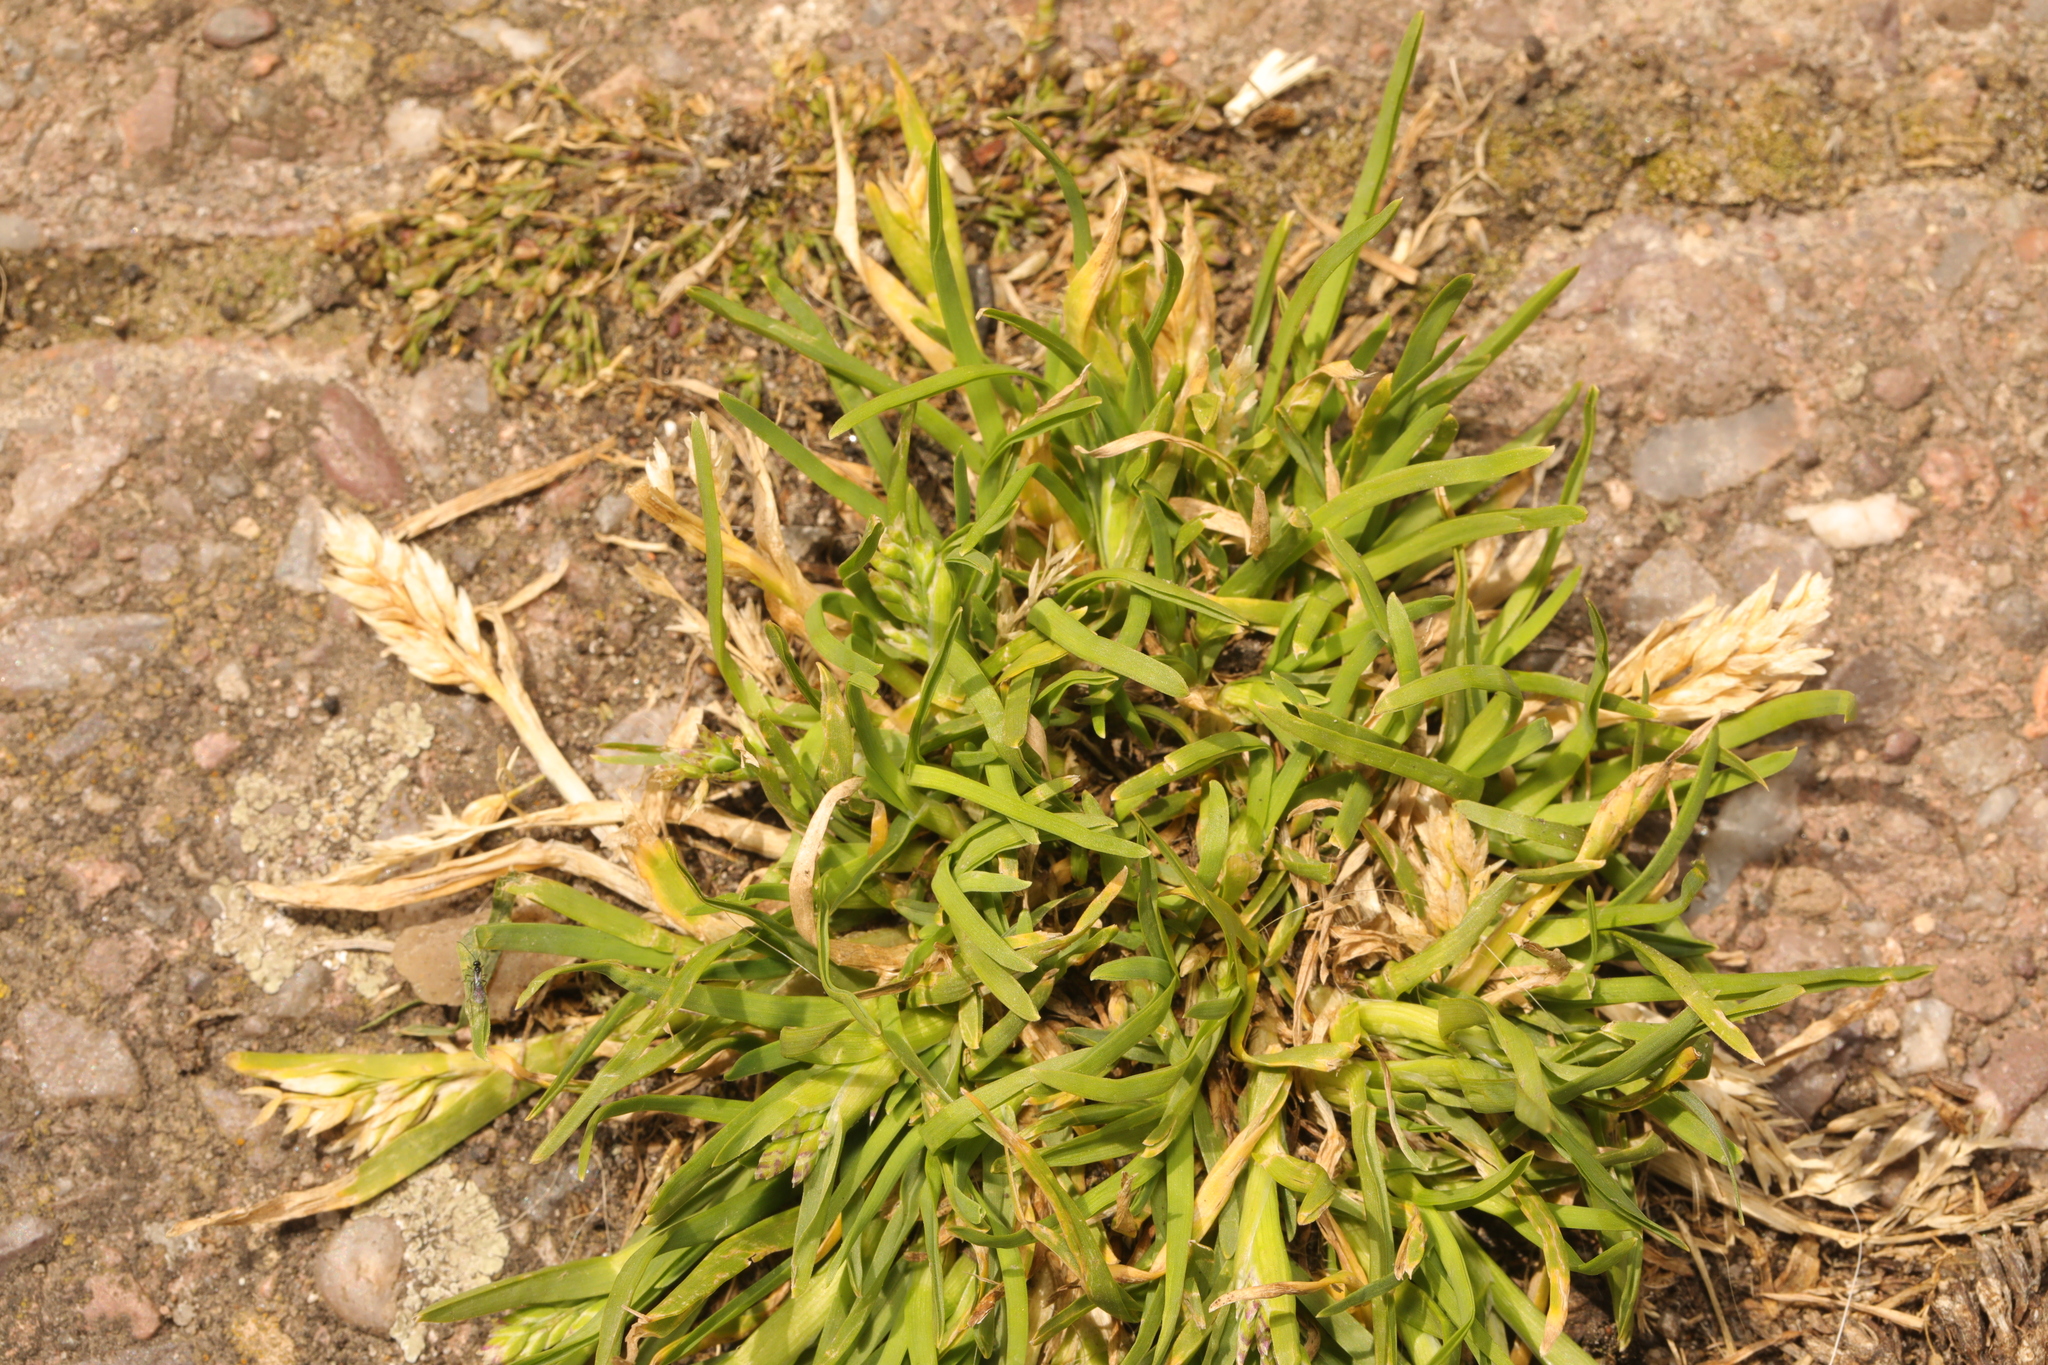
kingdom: Plantae
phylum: Tracheophyta
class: Liliopsida
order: Poales
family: Poaceae
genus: Poa
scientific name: Poa annua
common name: Annual bluegrass
